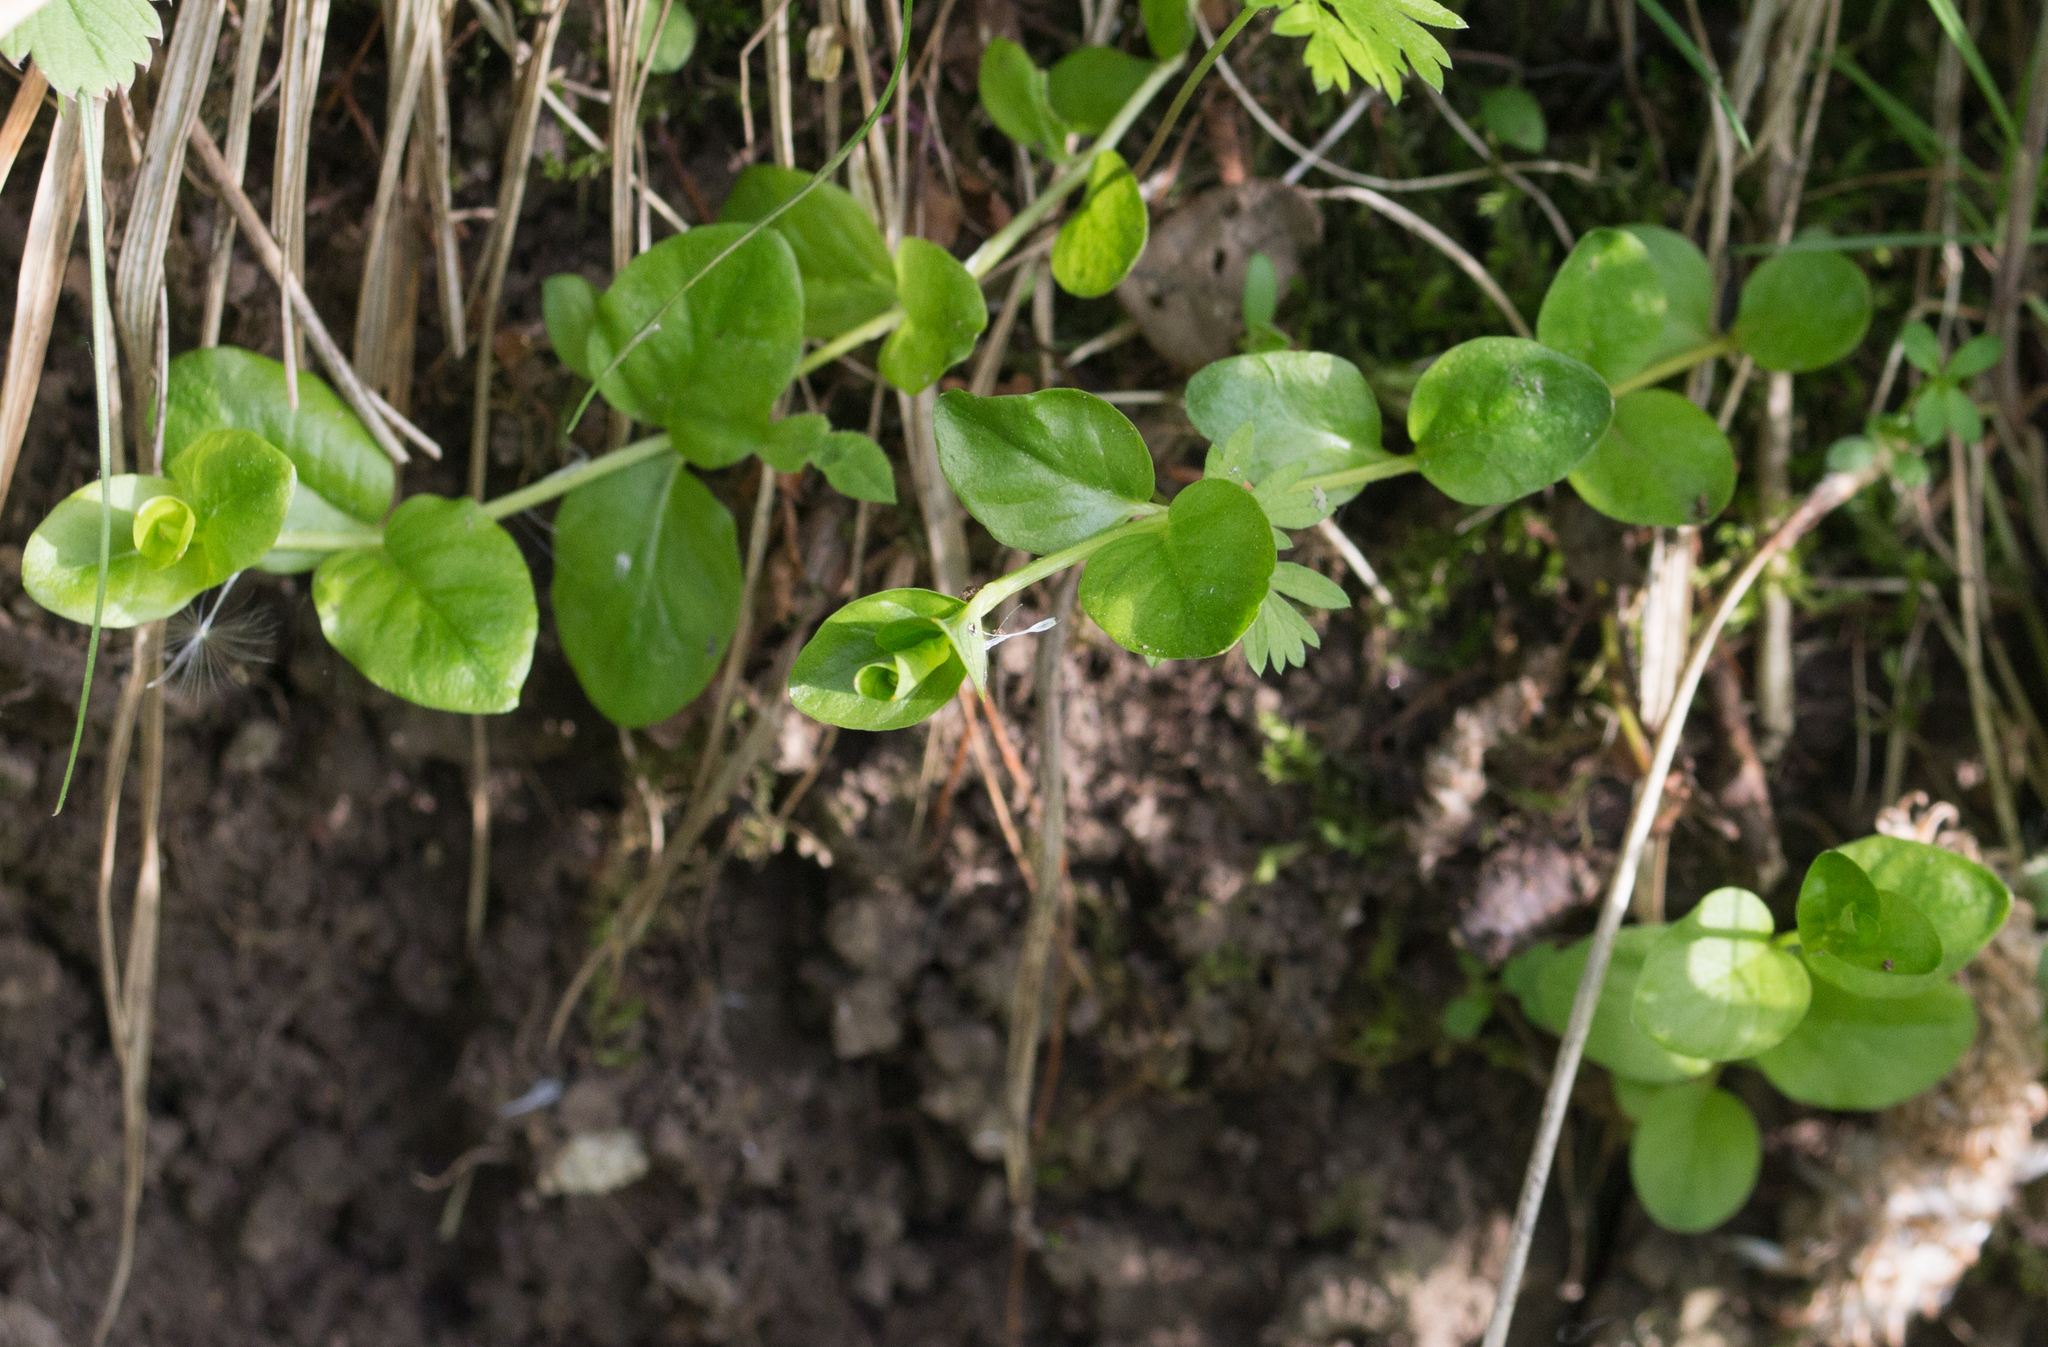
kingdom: Plantae
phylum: Tracheophyta
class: Magnoliopsida
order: Ericales
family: Primulaceae
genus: Lysimachia
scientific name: Lysimachia nummularia
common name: Moneywort
